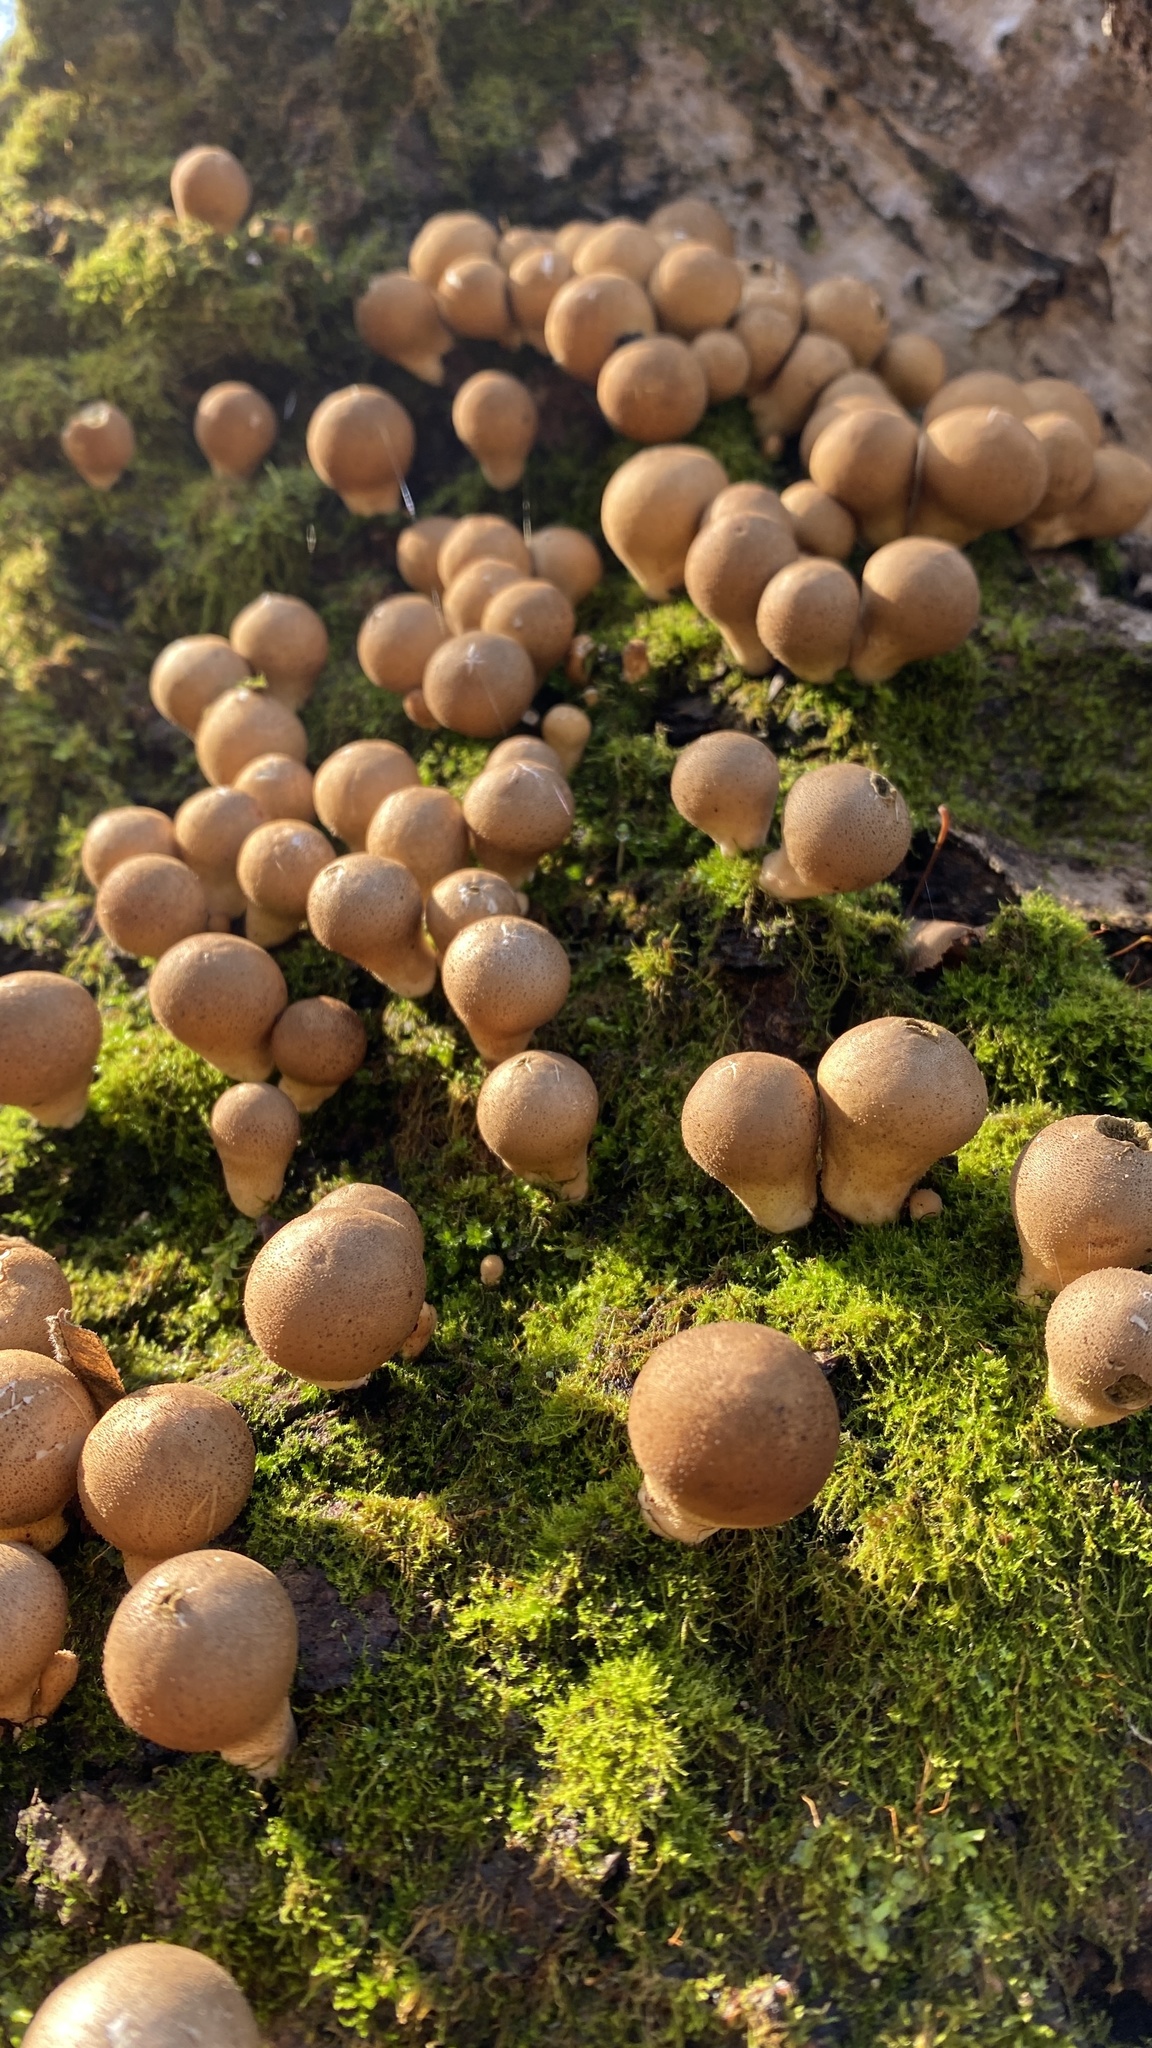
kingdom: Fungi
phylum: Basidiomycota
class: Agaricomycetes
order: Agaricales
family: Lycoperdaceae
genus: Apioperdon
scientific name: Apioperdon pyriforme
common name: Pear-shaped puffball
